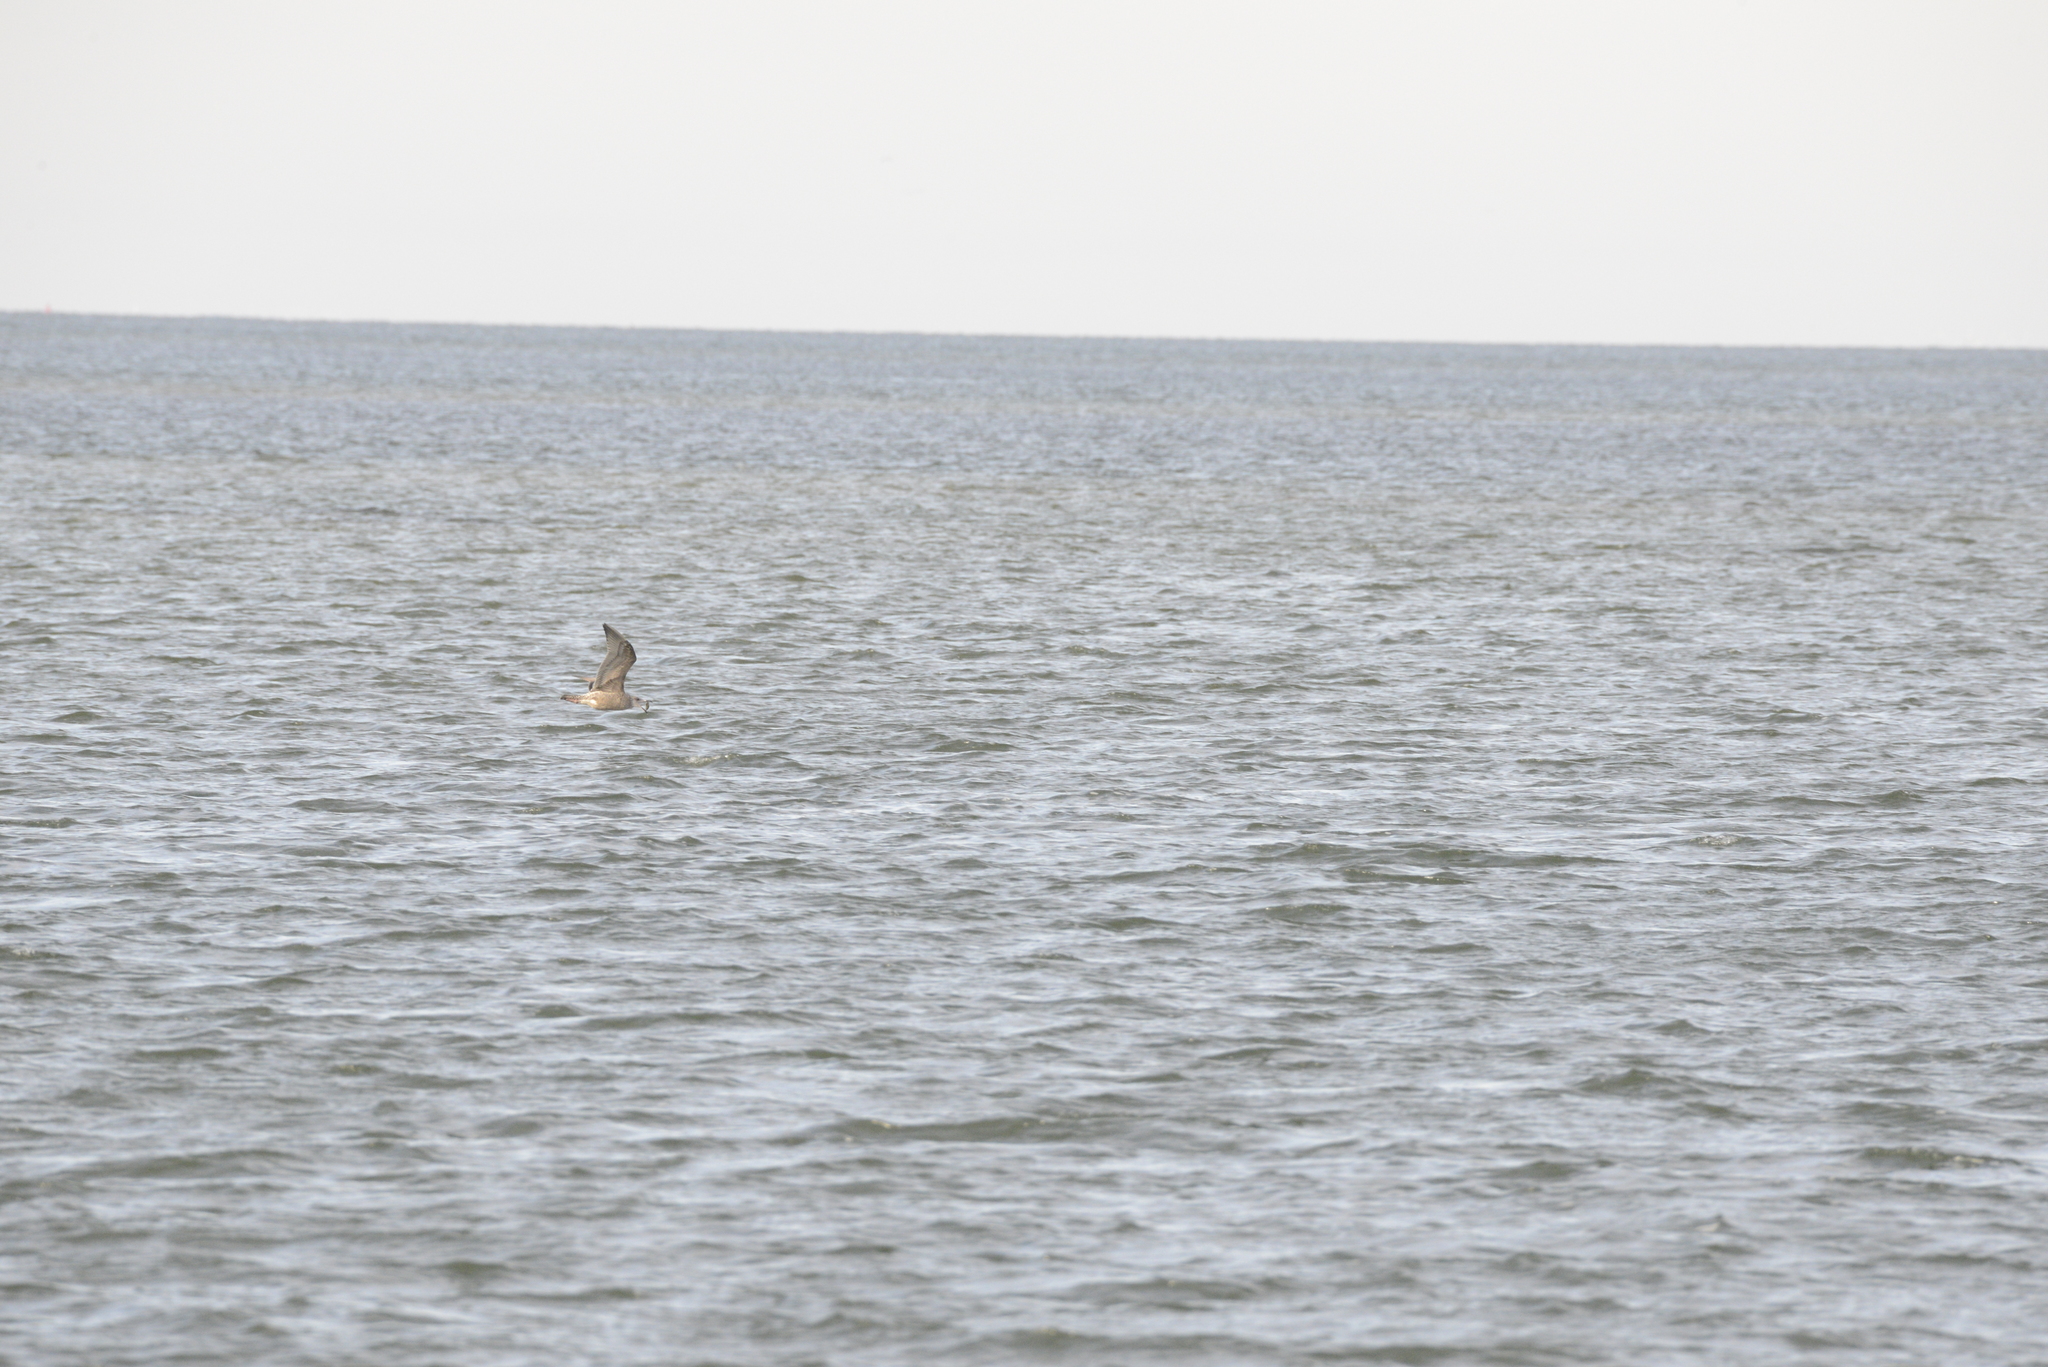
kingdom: Animalia
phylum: Chordata
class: Aves
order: Charadriiformes
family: Laridae
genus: Larus
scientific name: Larus argentatus
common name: Herring gull
